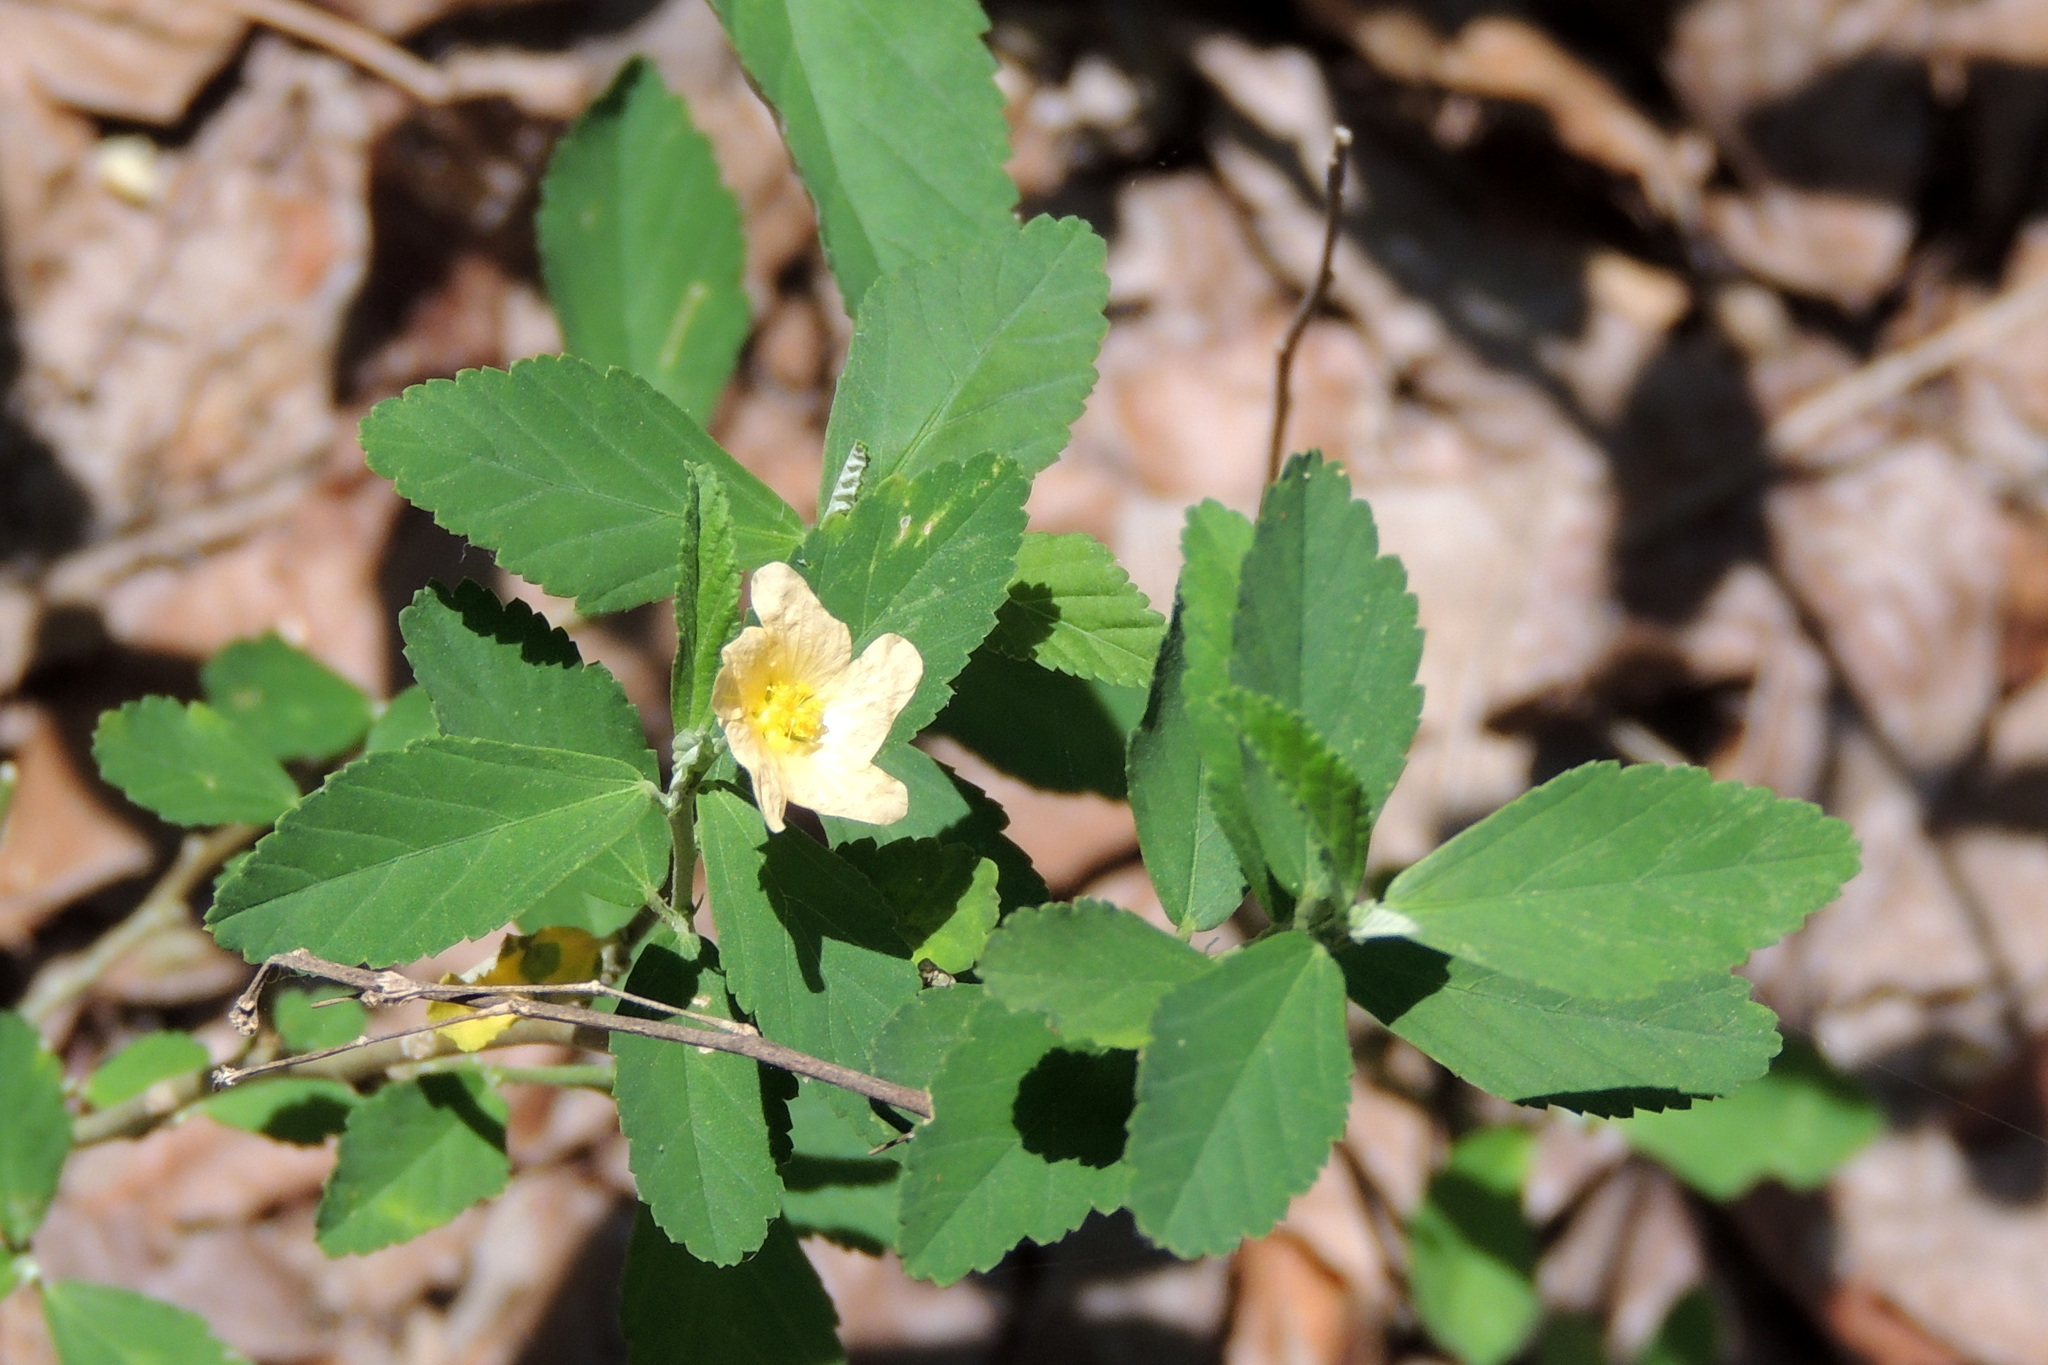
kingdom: Plantae
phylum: Tracheophyta
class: Magnoliopsida
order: Malvales
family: Malvaceae
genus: Sida
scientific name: Sida rhombifolia
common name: Queensland-hemp
